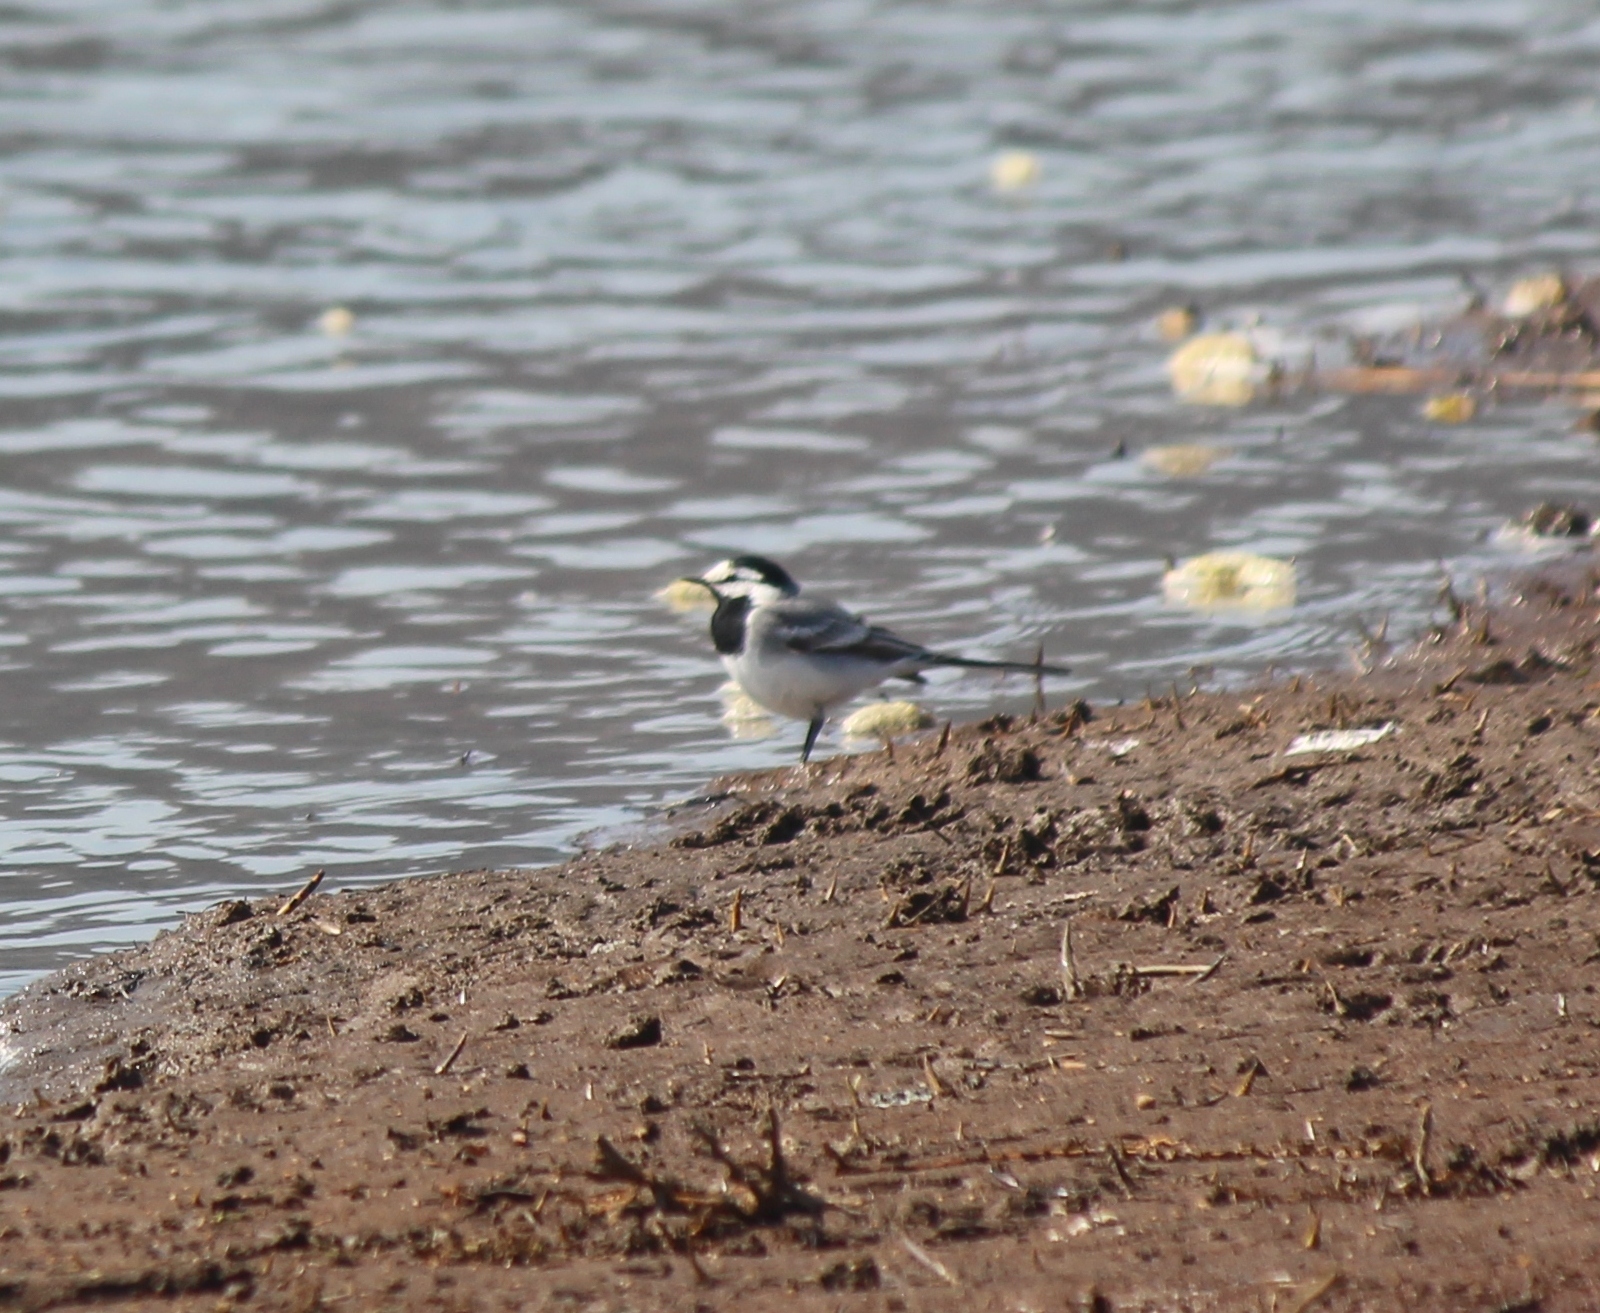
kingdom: Animalia
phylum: Chordata
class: Aves
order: Passeriformes
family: Motacillidae
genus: Motacilla
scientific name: Motacilla alba
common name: White wagtail
